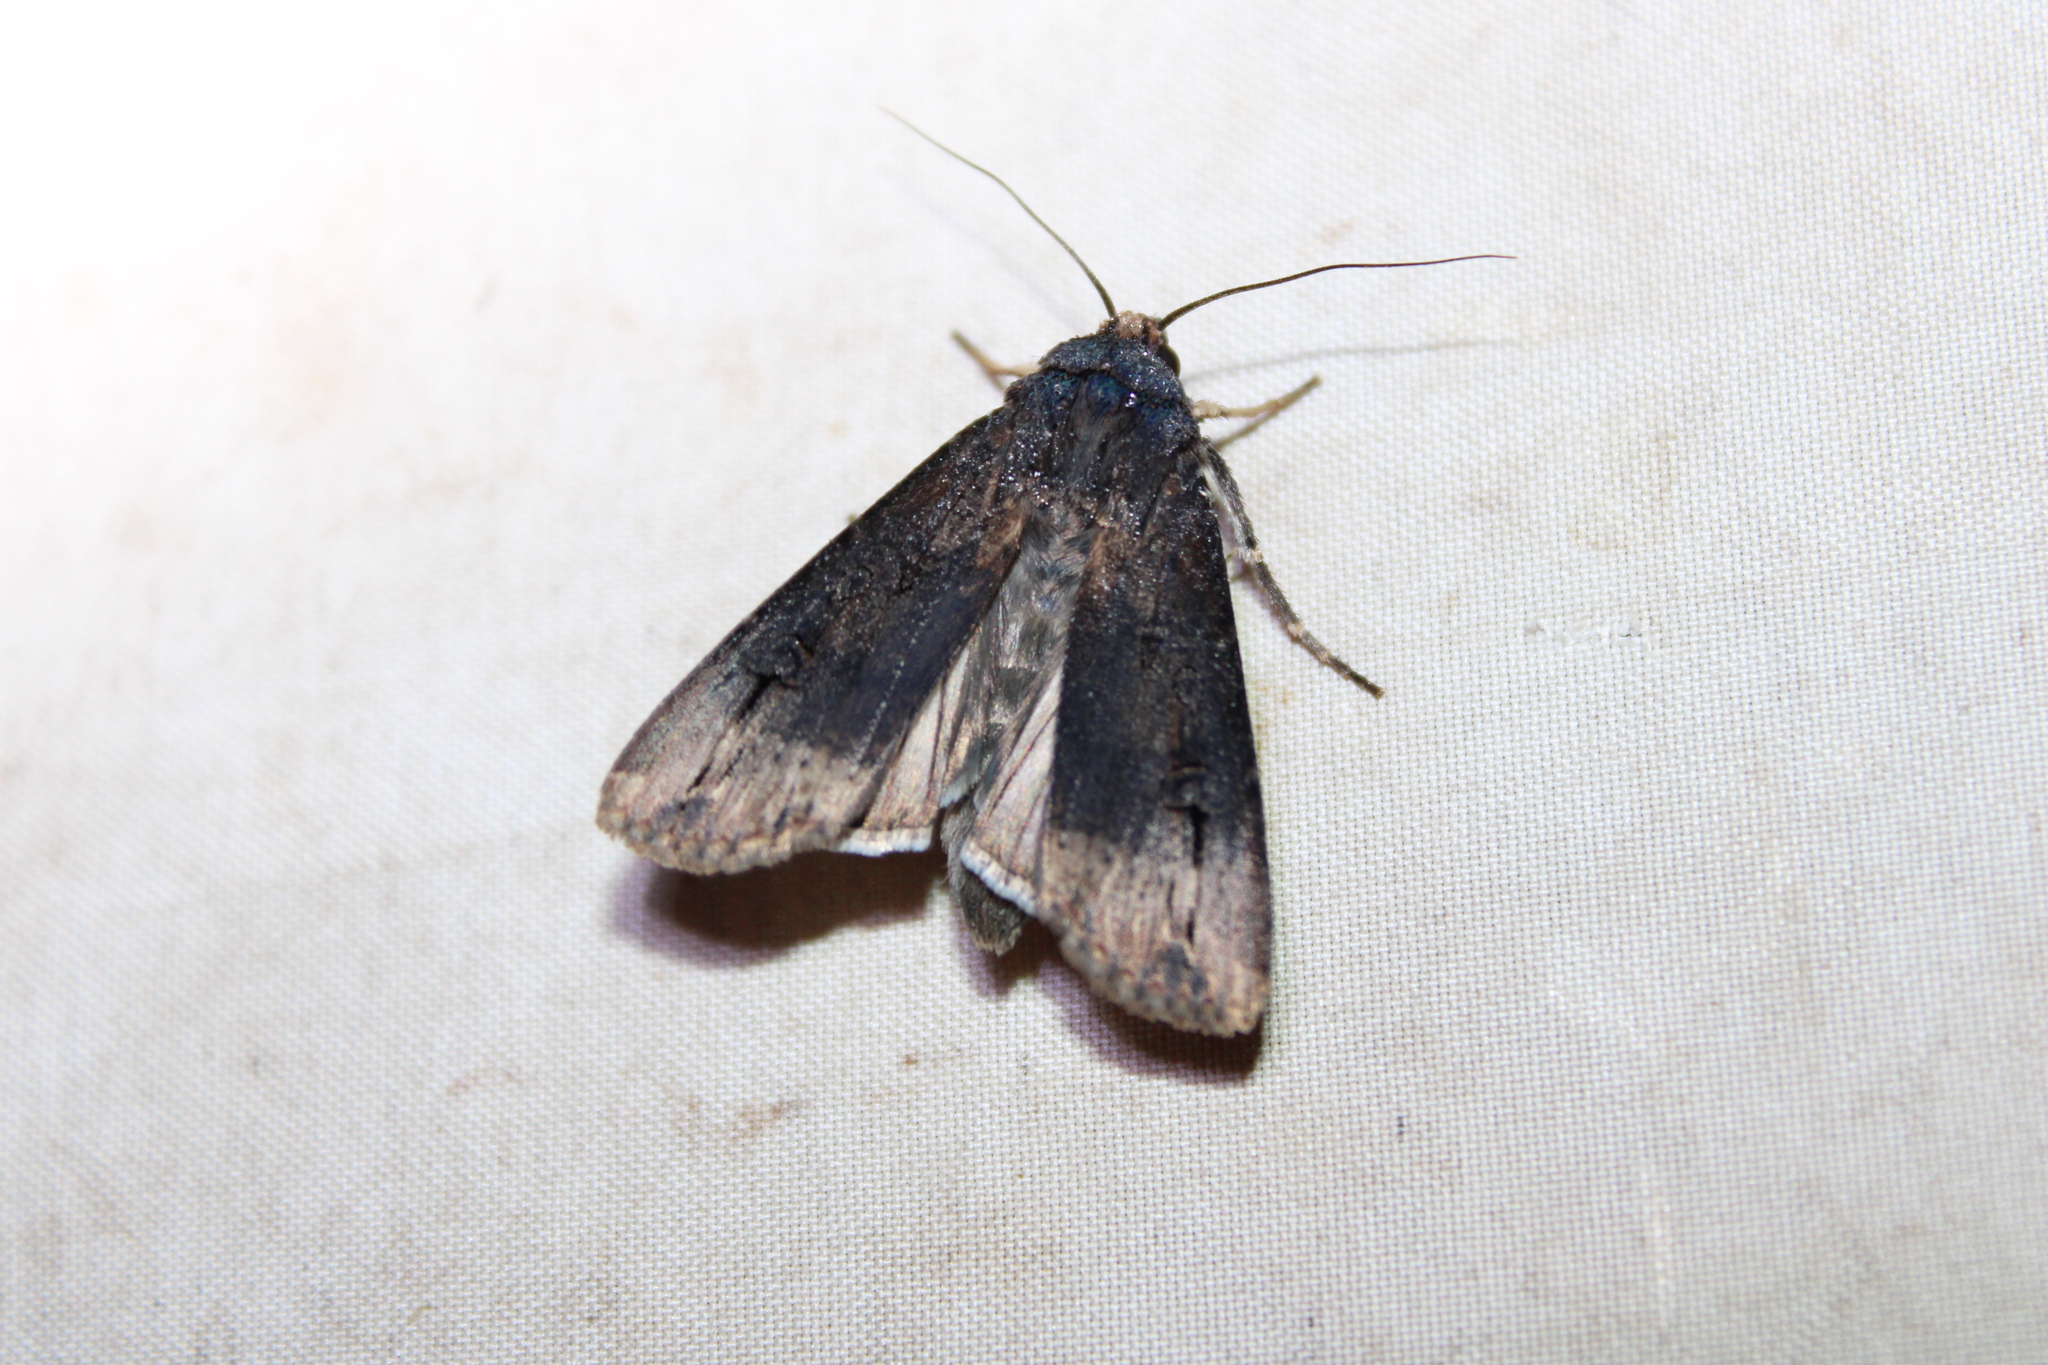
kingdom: Animalia
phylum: Arthropoda
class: Insecta
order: Lepidoptera
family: Noctuidae
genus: Agrotis
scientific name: Agrotis ipsilon
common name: Dark sword-grass
